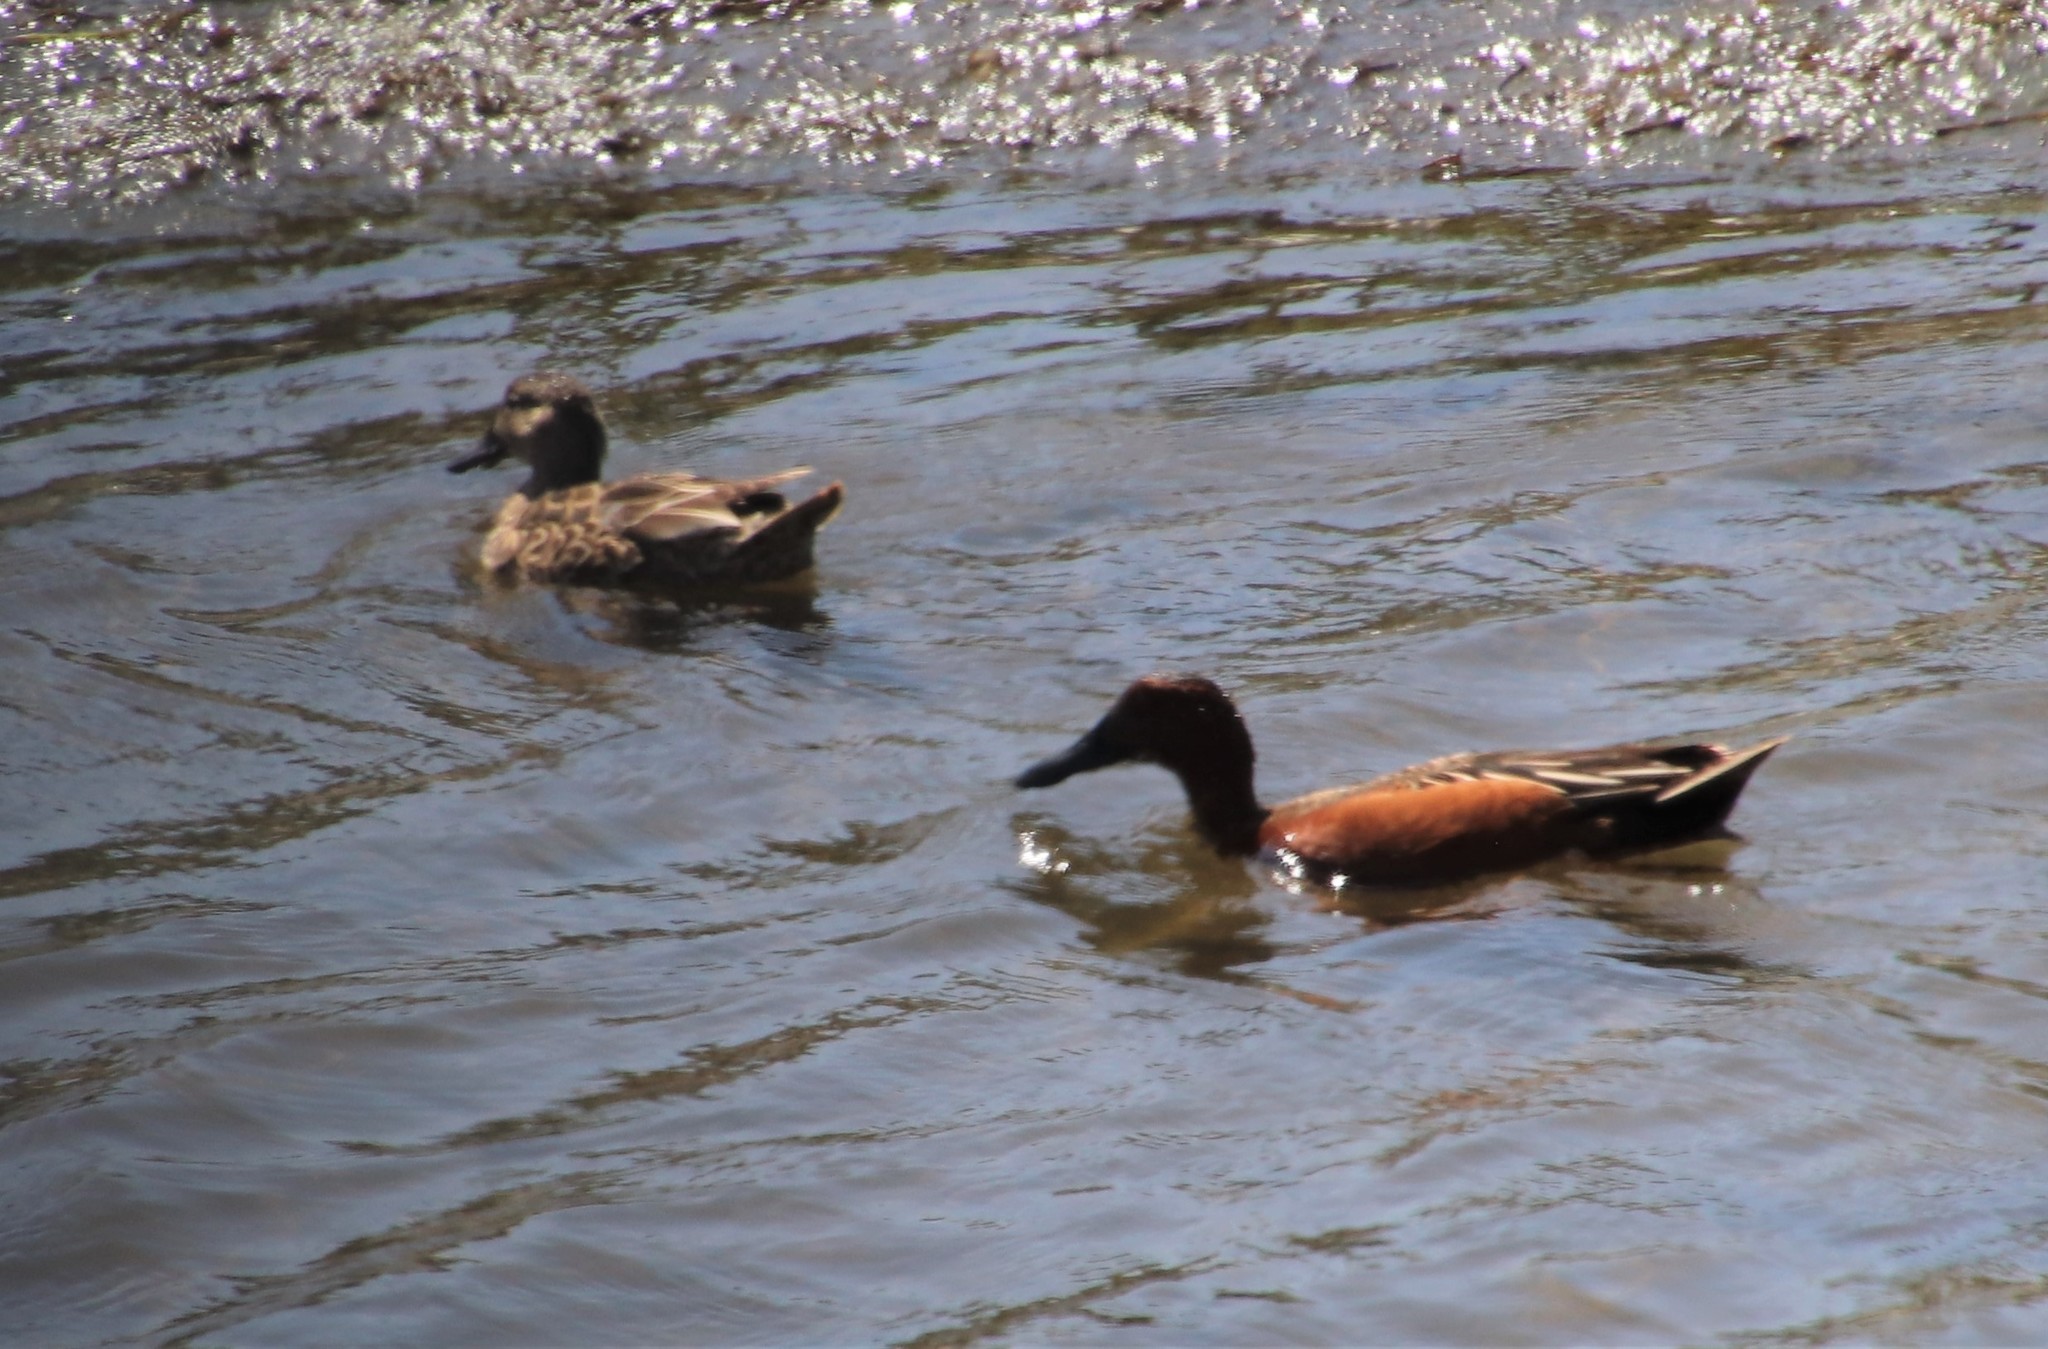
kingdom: Animalia
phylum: Chordata
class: Aves
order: Anseriformes
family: Anatidae
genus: Spatula
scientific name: Spatula cyanoptera
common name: Cinnamon teal
